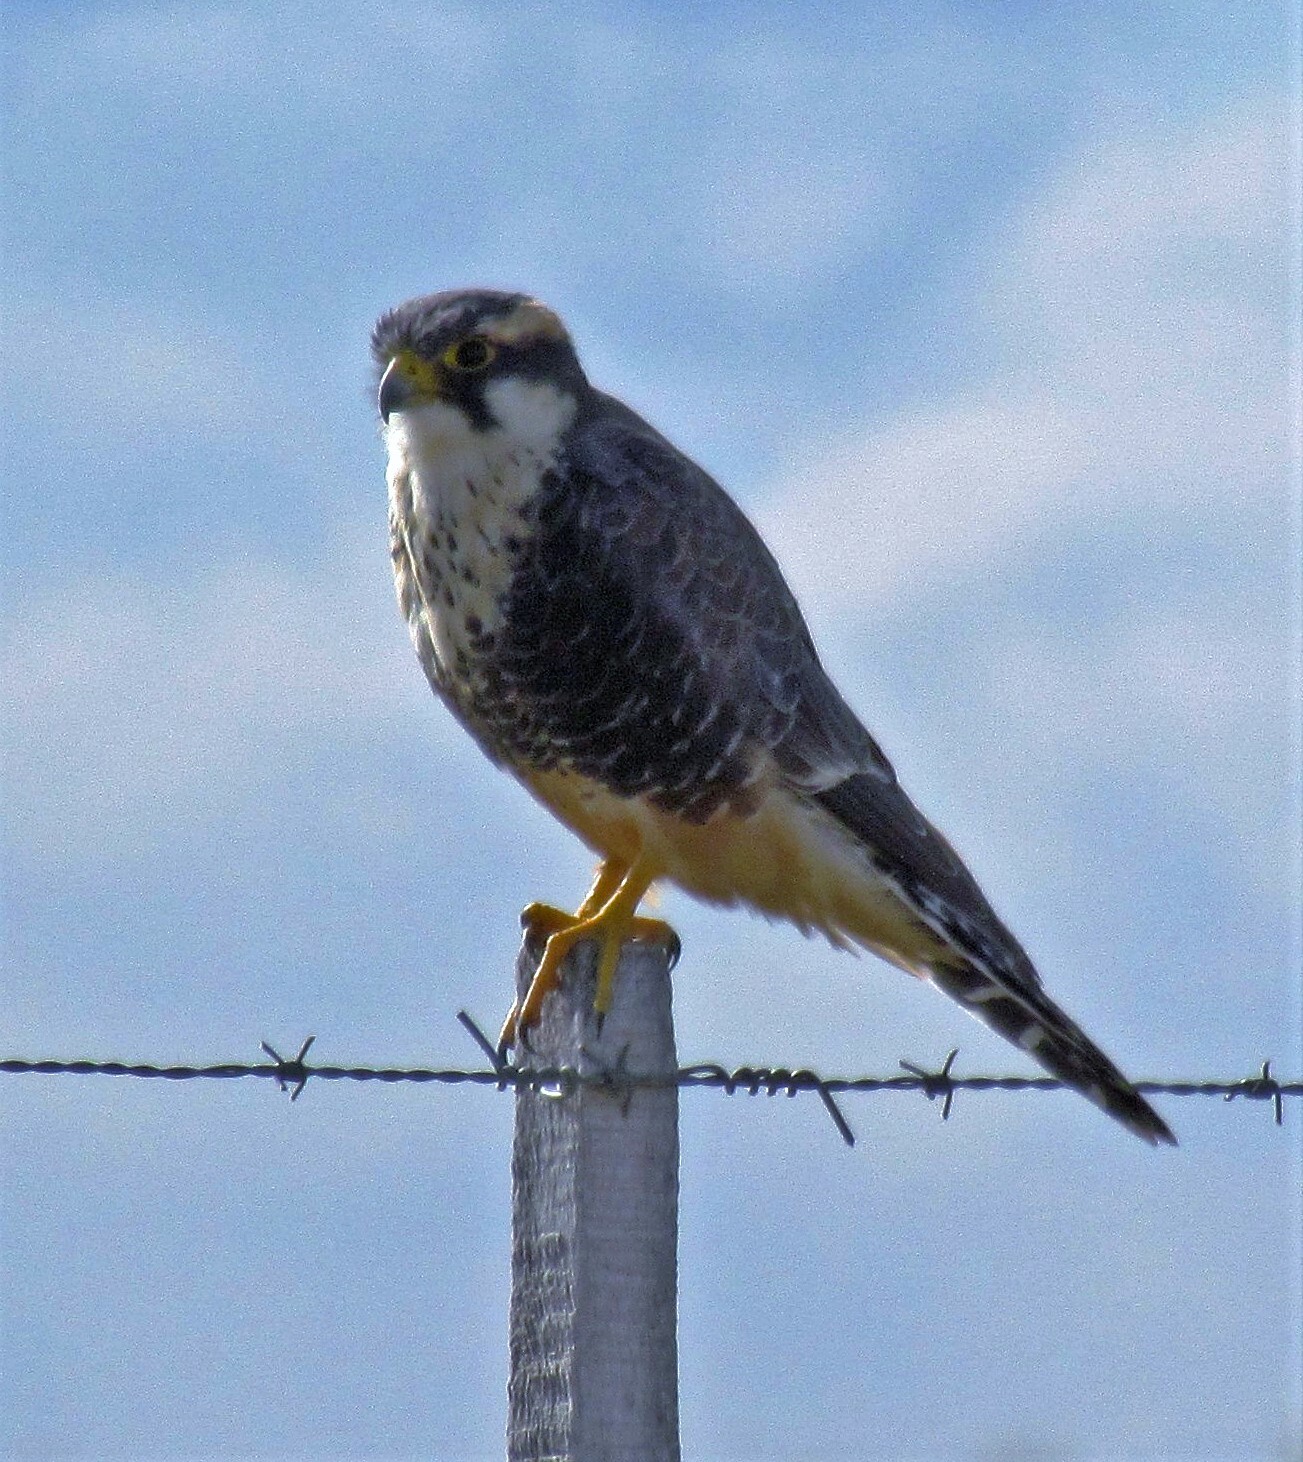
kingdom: Animalia
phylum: Chordata
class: Aves
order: Falconiformes
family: Falconidae
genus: Falco
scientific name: Falco femoralis
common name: Aplomado falcon
